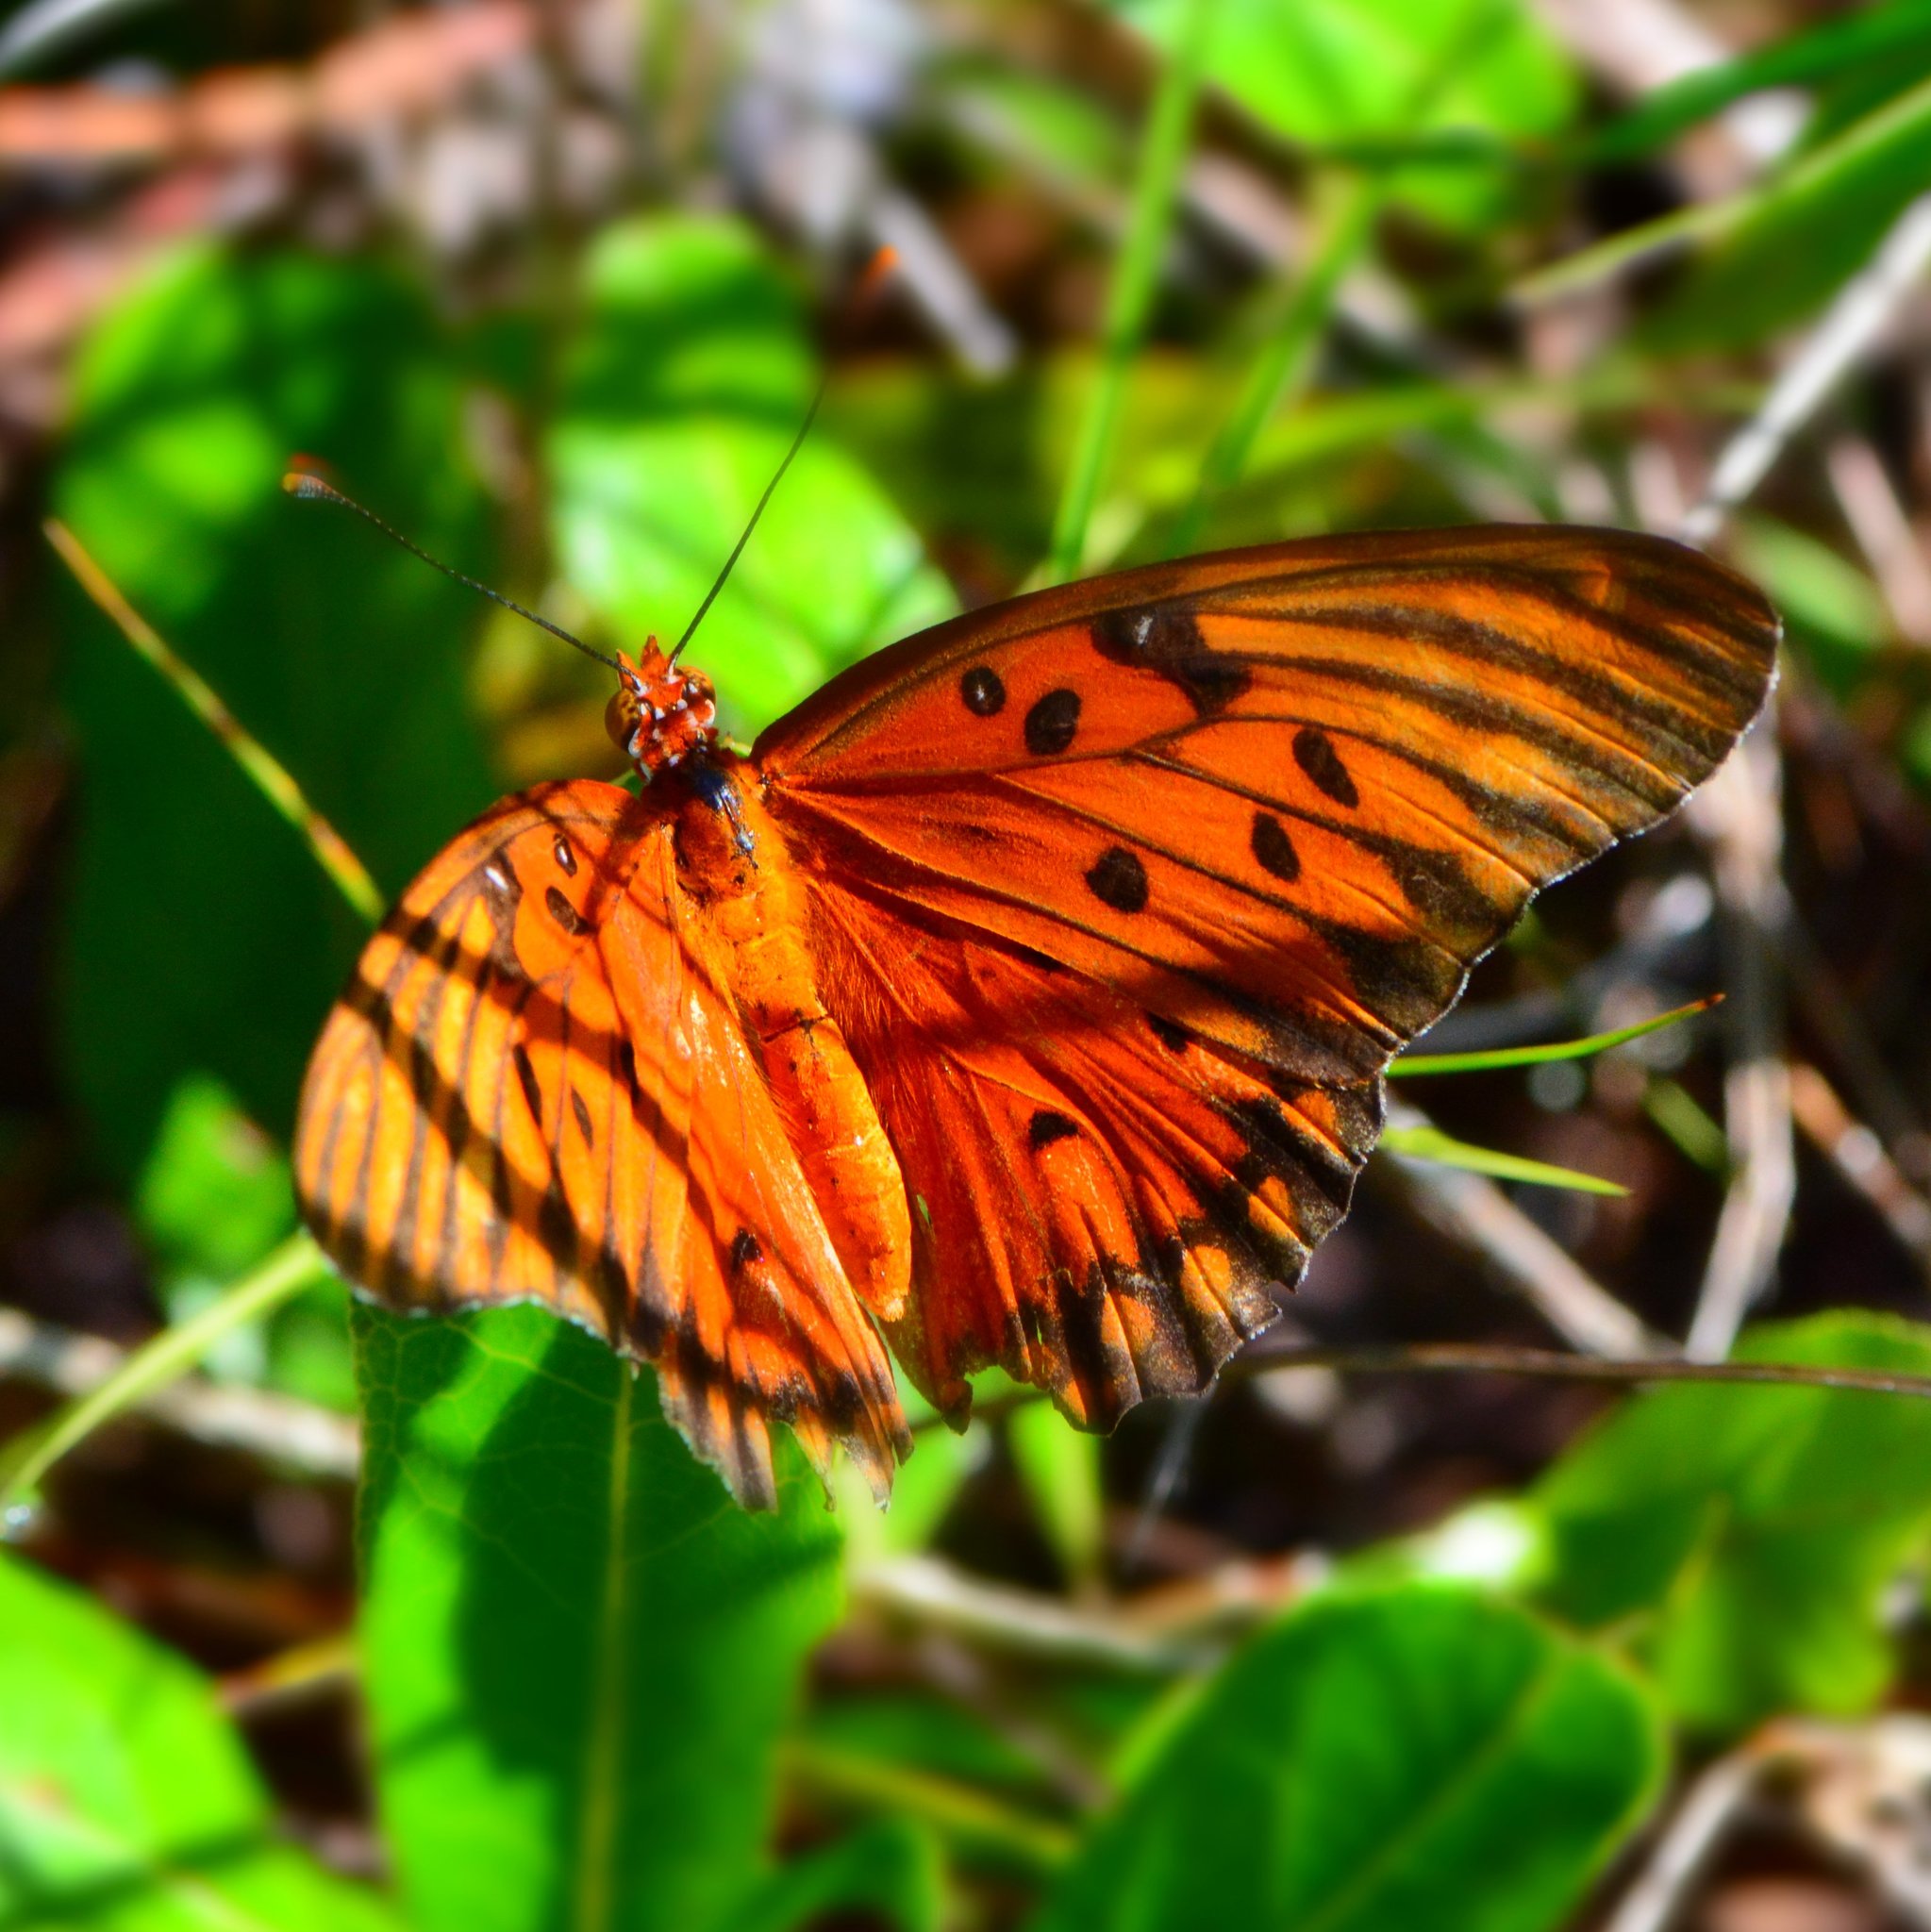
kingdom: Animalia
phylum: Arthropoda
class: Insecta
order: Lepidoptera
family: Nymphalidae
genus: Dione
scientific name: Dione vanillae
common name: Gulf fritillary
